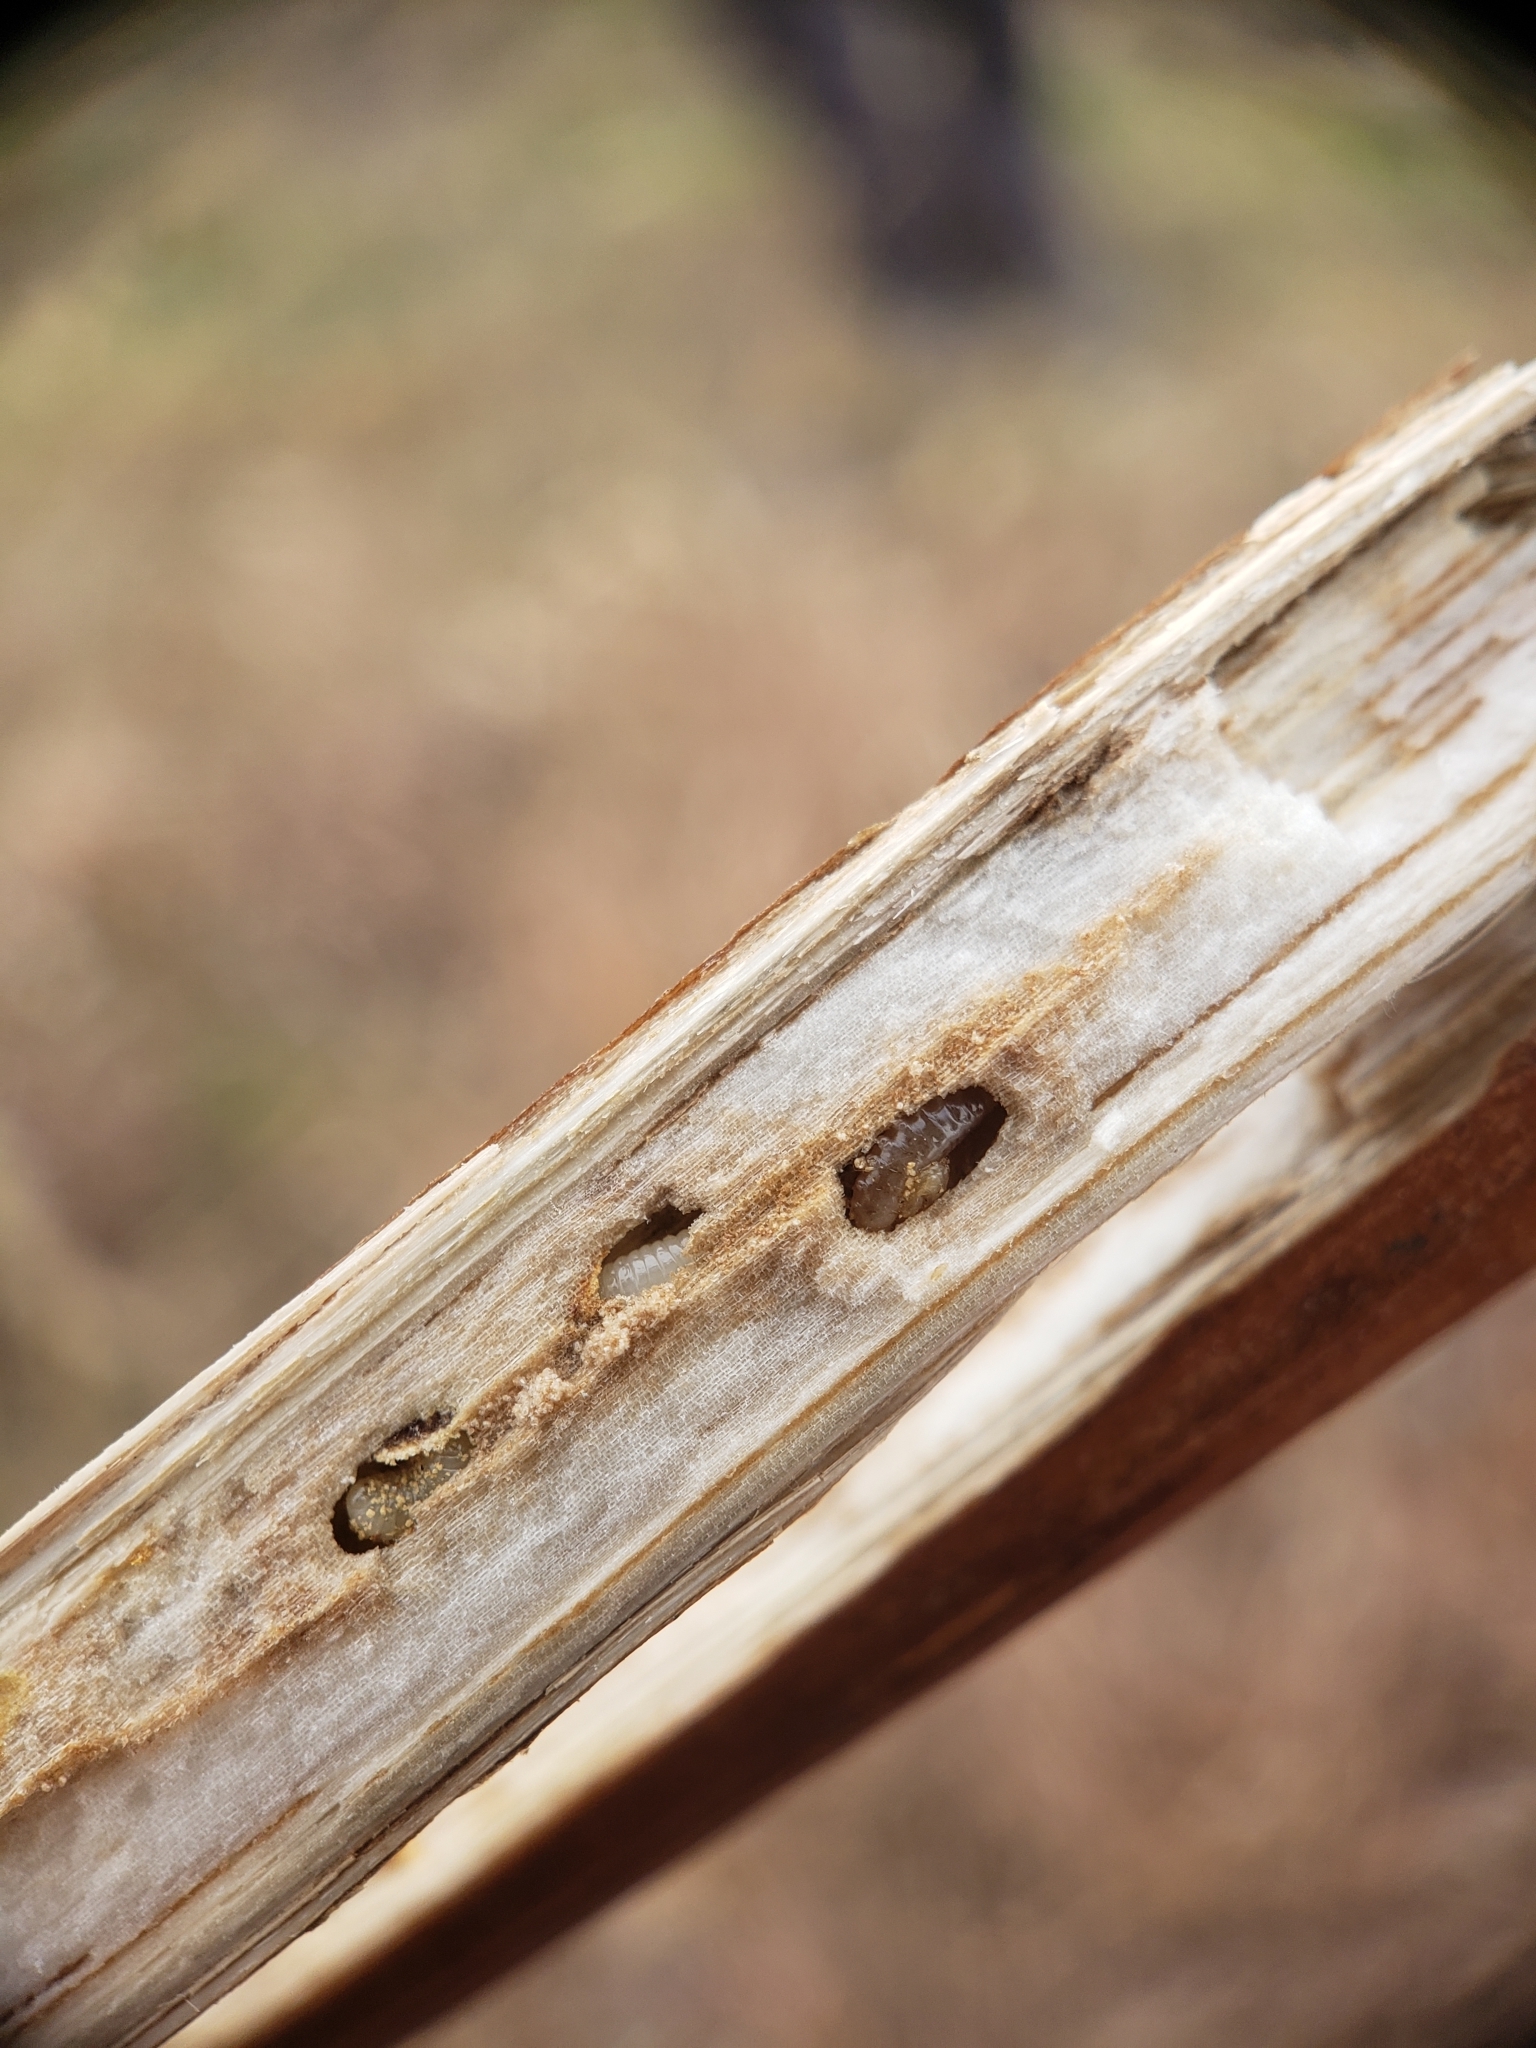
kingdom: Animalia
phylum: Arthropoda
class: Insecta
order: Hymenoptera
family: Cynipidae
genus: Antistrophus
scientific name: Antistrophus
